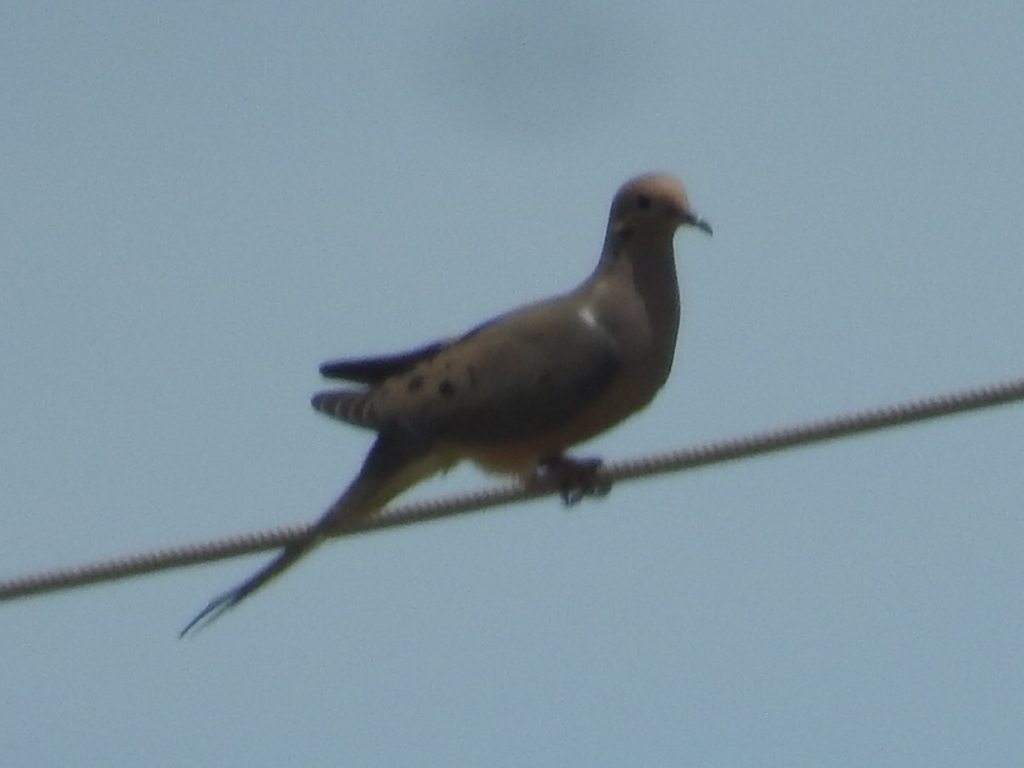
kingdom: Animalia
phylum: Chordata
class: Aves
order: Columbiformes
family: Columbidae
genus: Zenaida
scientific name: Zenaida macroura
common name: Mourning dove
